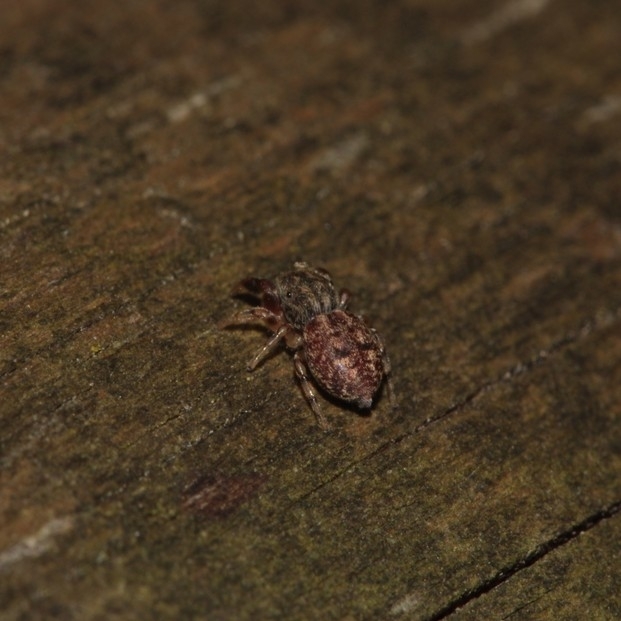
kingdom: Animalia
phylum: Arthropoda
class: Arachnida
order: Araneae
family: Salticidae
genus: Ballus
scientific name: Ballus chalybeius
